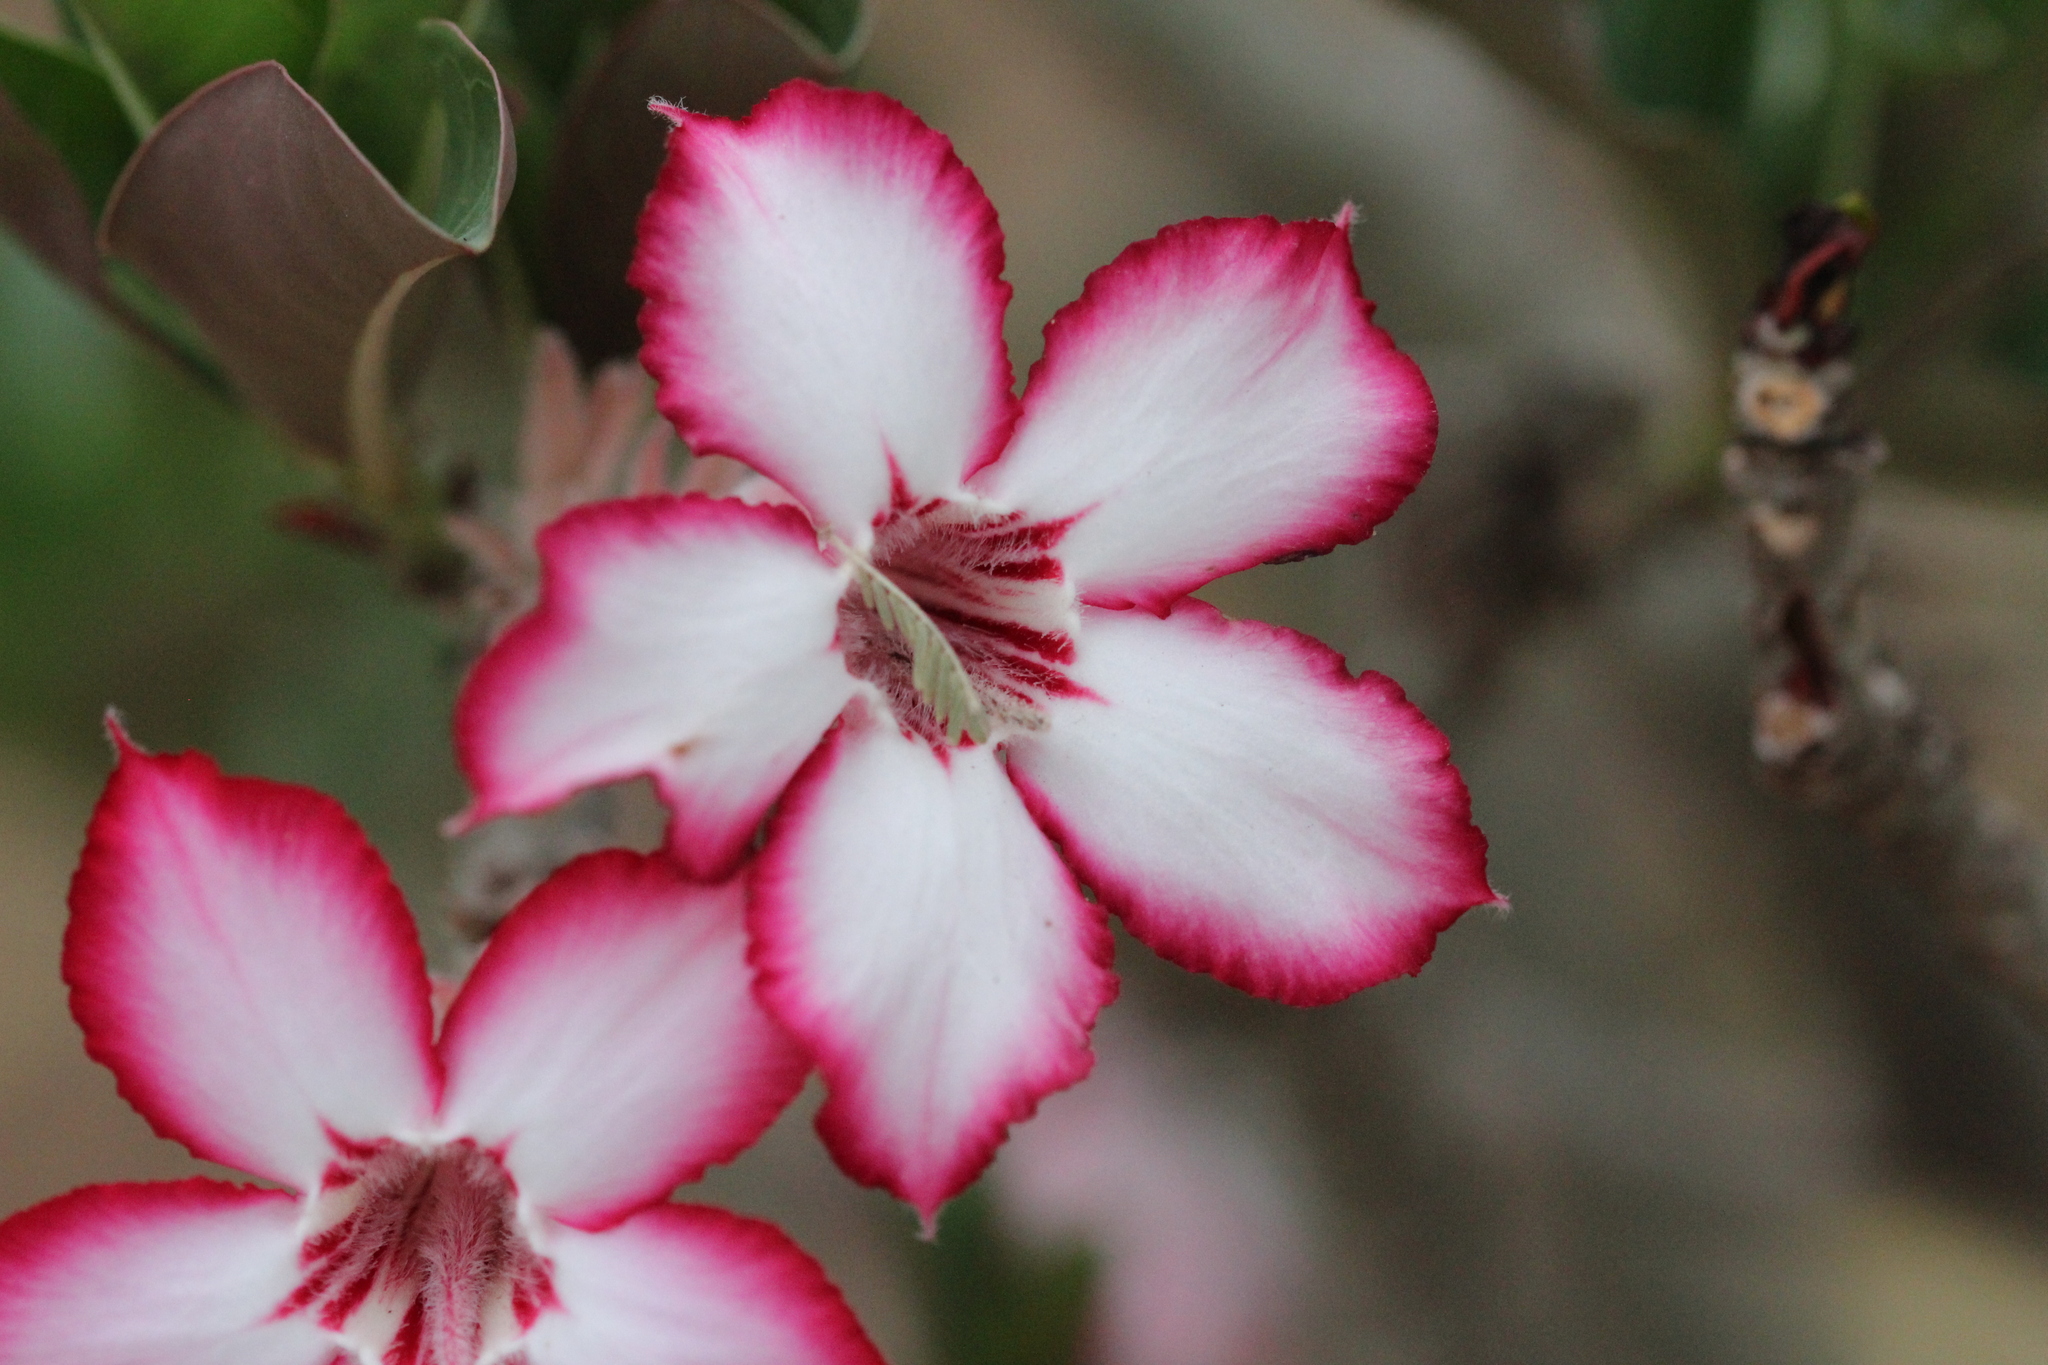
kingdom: Plantae
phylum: Tracheophyta
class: Magnoliopsida
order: Gentianales
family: Apocynaceae
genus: Adenium
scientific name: Adenium obesum
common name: Desert-rose
